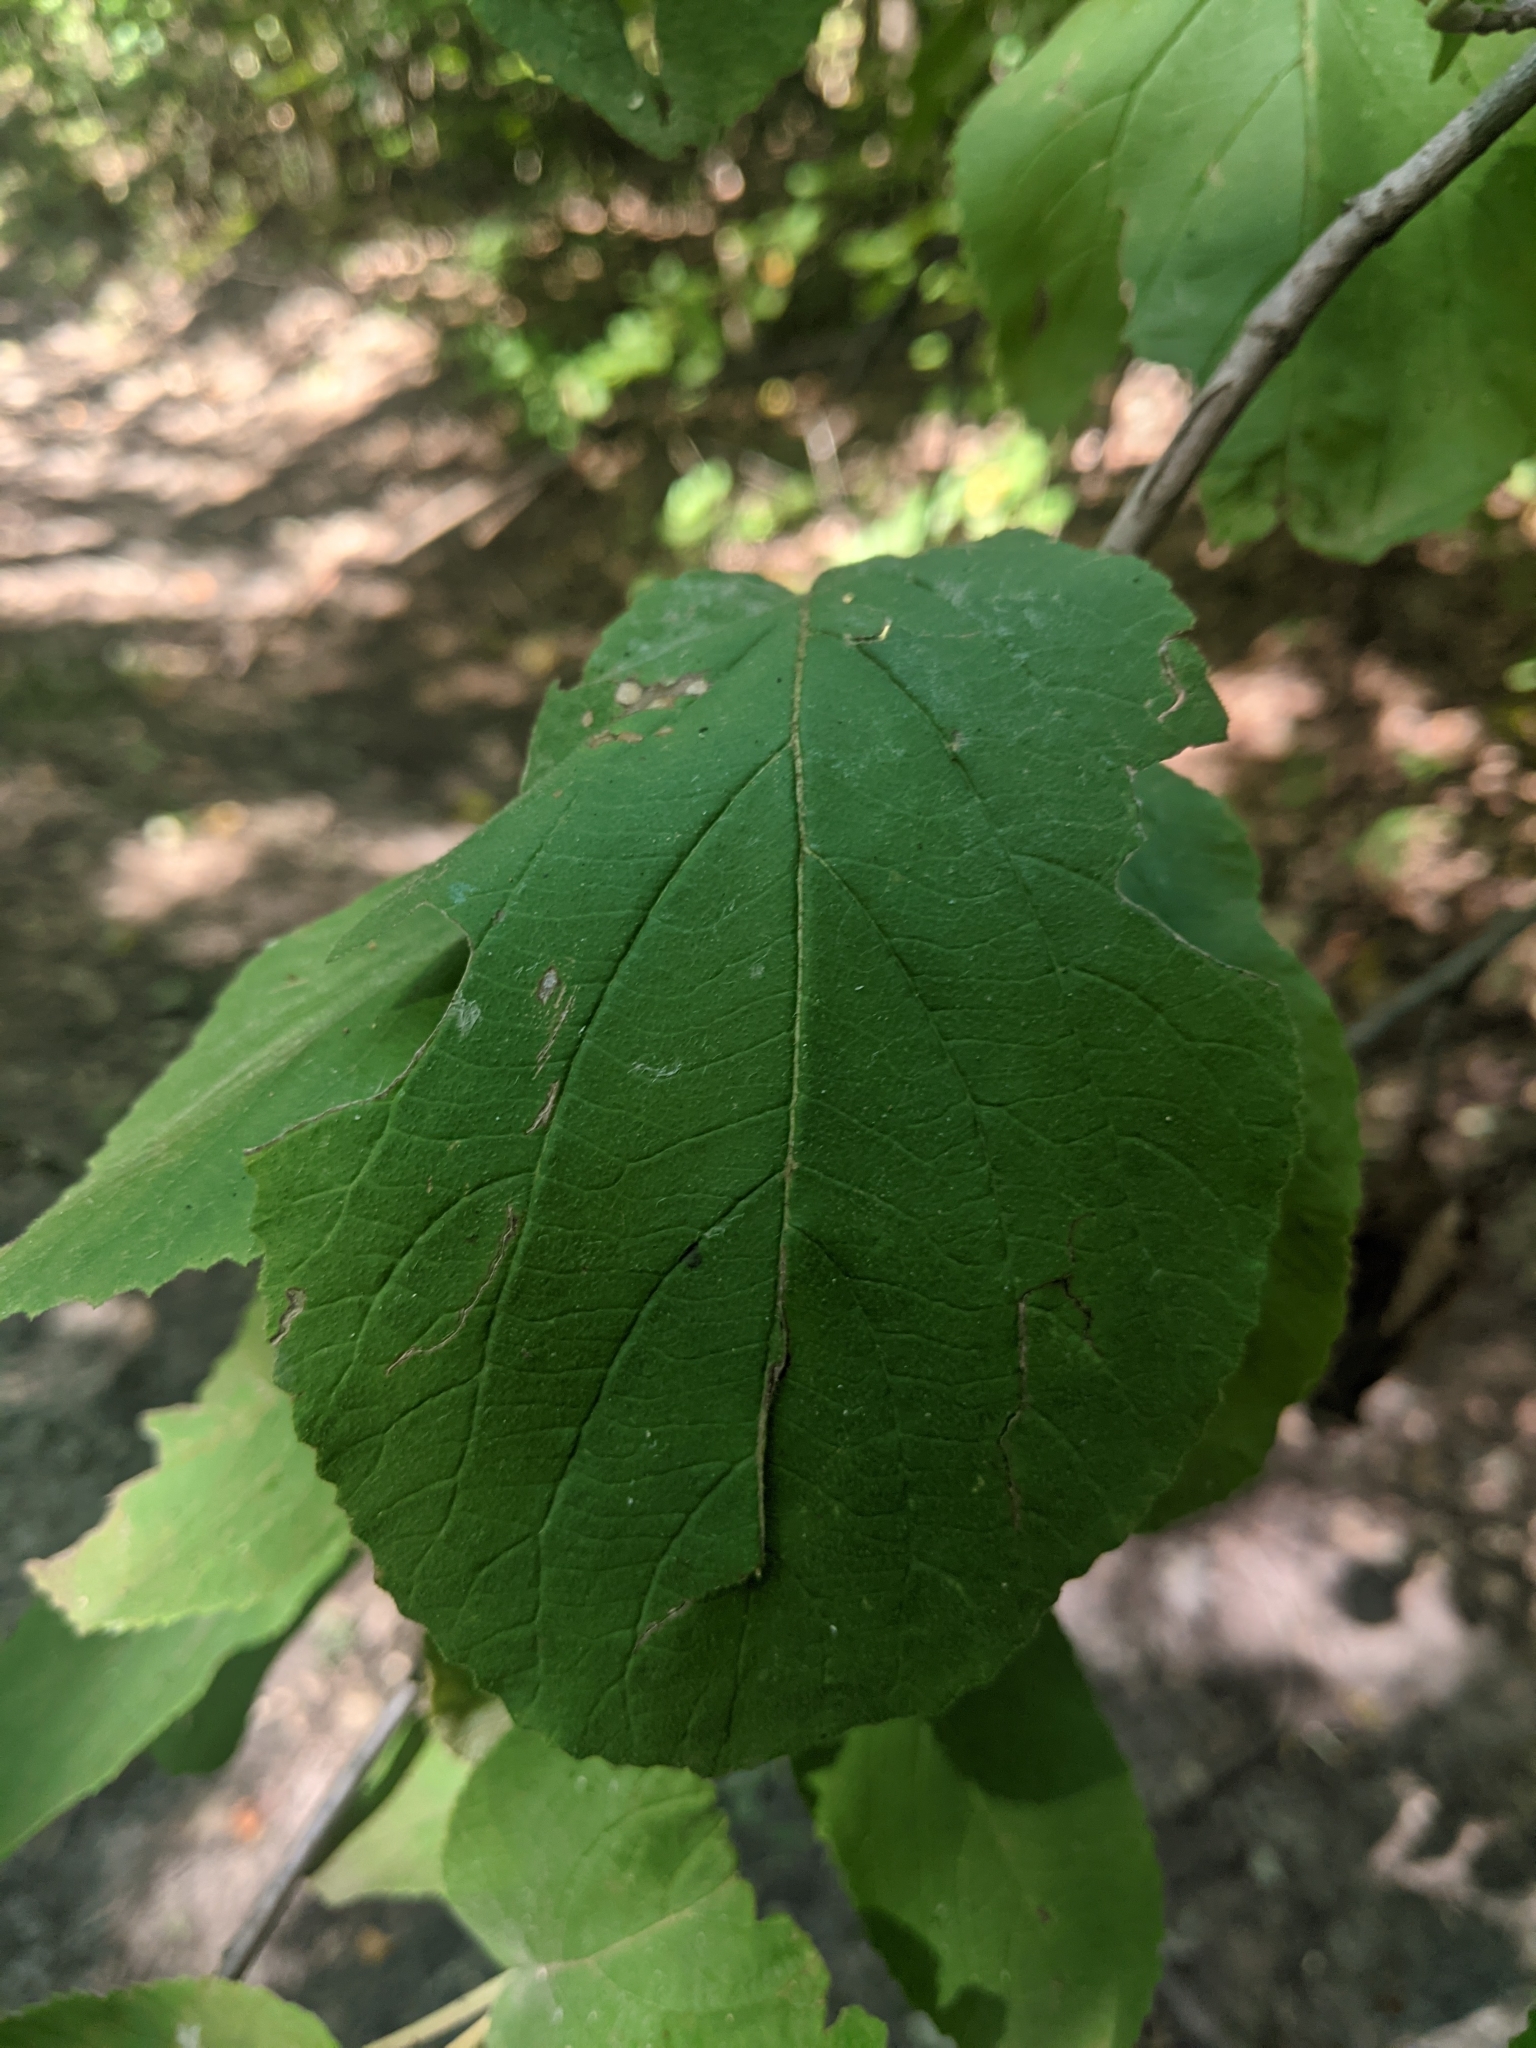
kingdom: Plantae
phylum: Tracheophyta
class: Magnoliopsida
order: Dipsacales
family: Viburnaceae
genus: Viburnum
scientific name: Viburnum lantana
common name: Wayfaring tree
